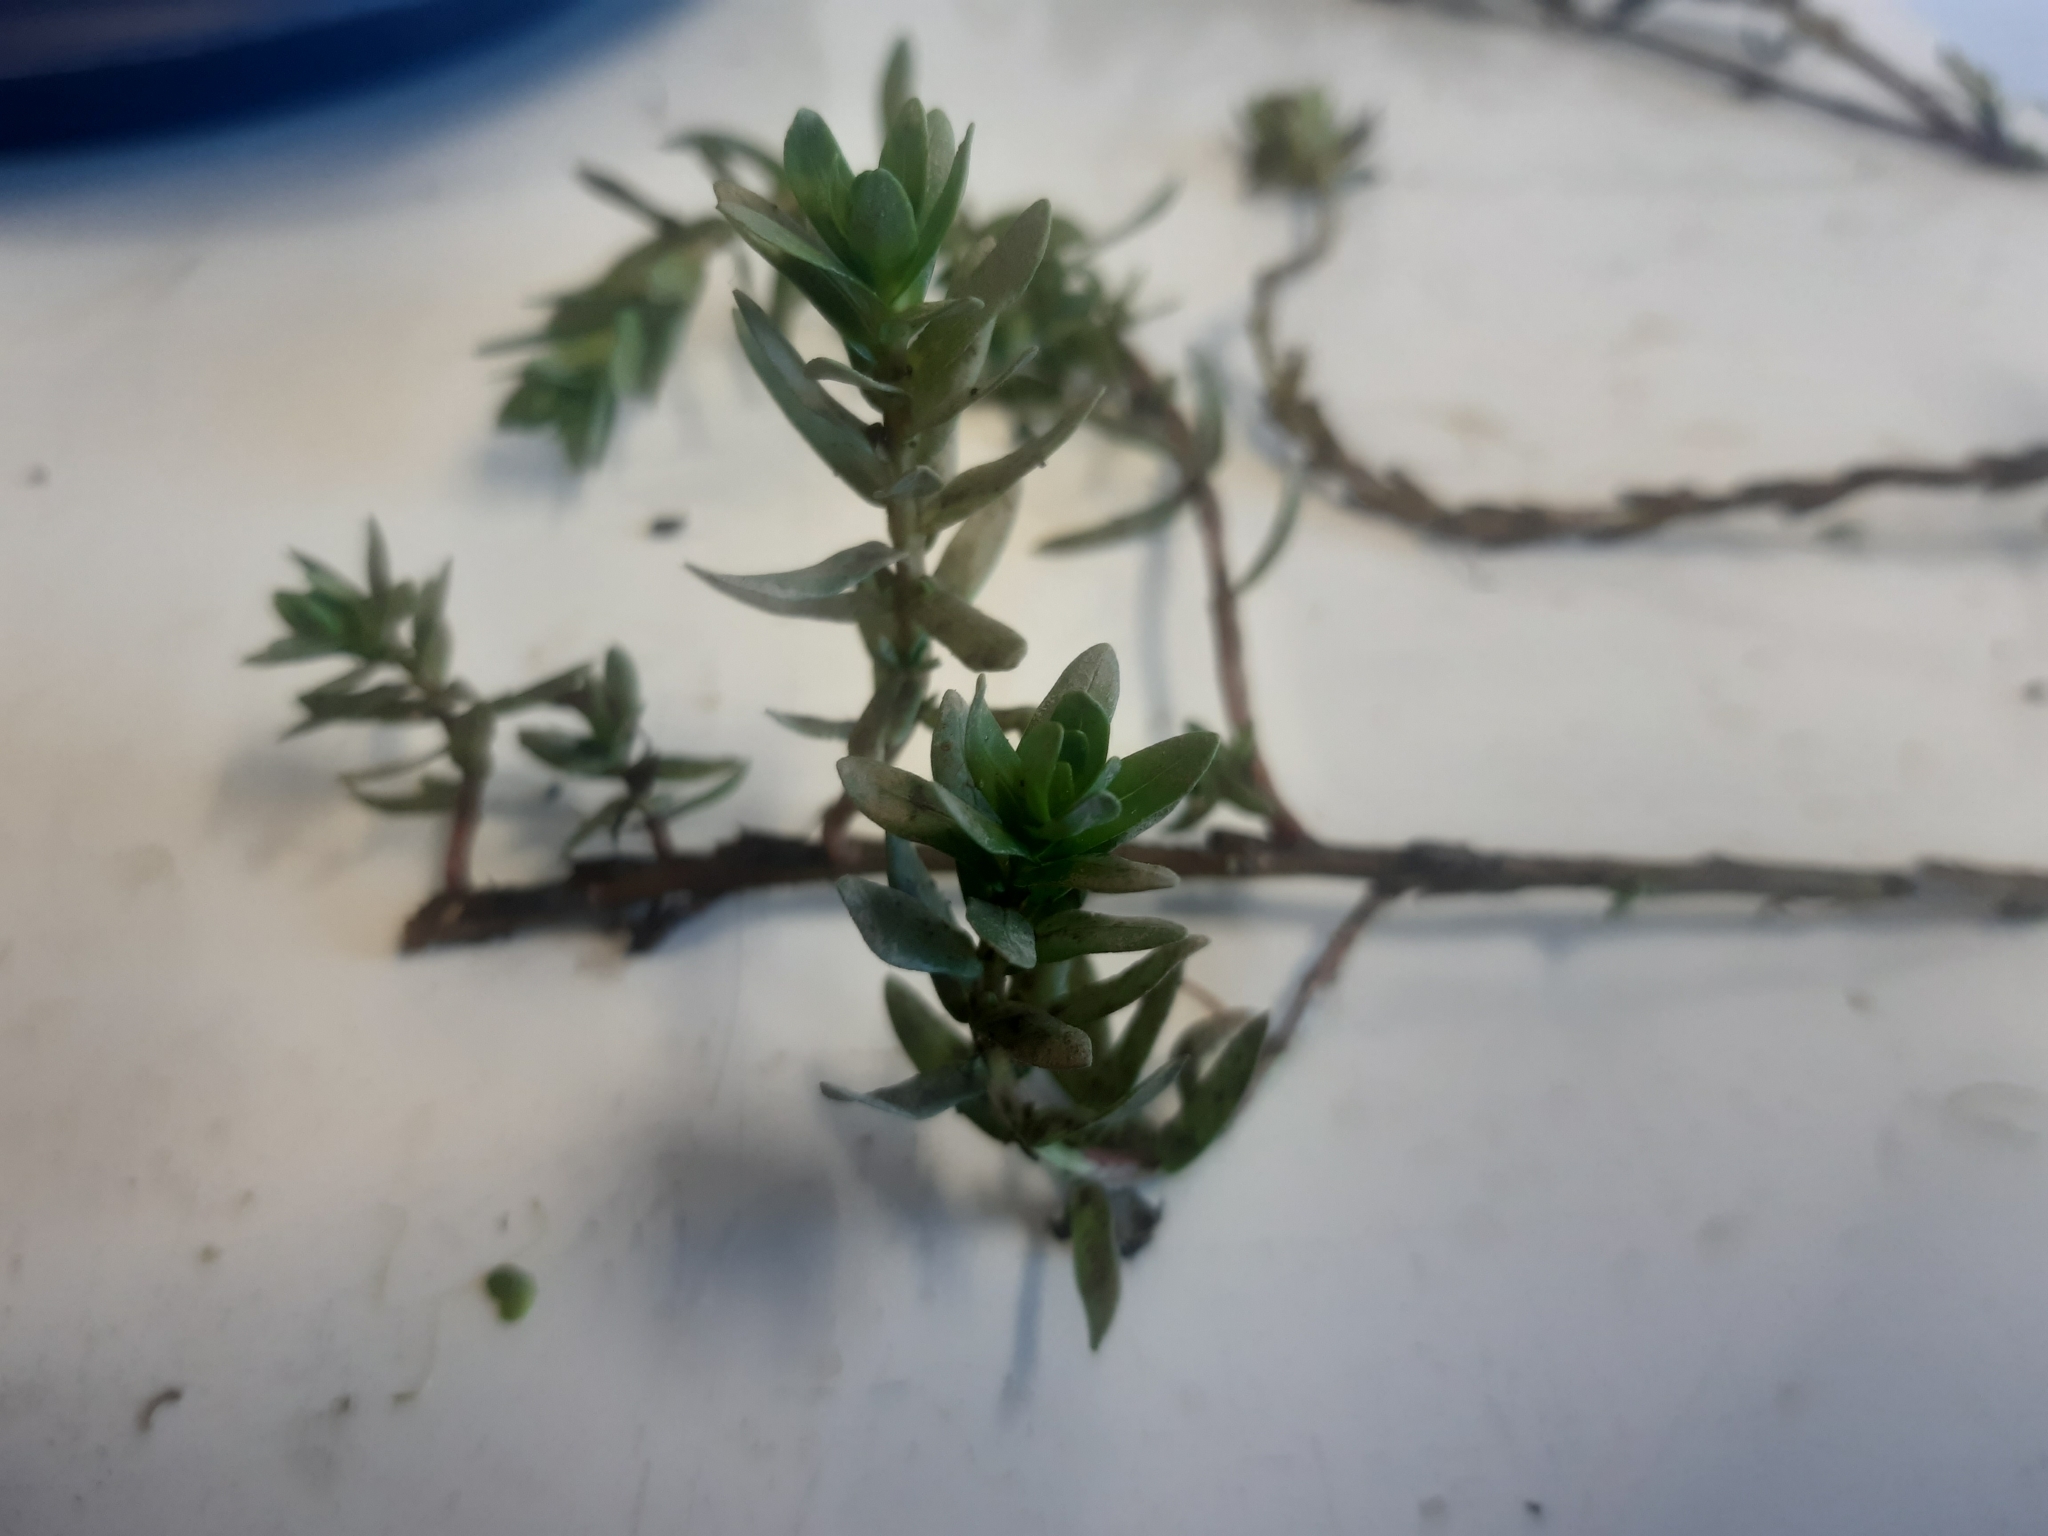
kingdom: Plantae
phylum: Tracheophyta
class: Magnoliopsida
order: Myrtales
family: Lythraceae
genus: Lythrum
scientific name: Lythrum hyssopifolia
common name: Grass-poly
